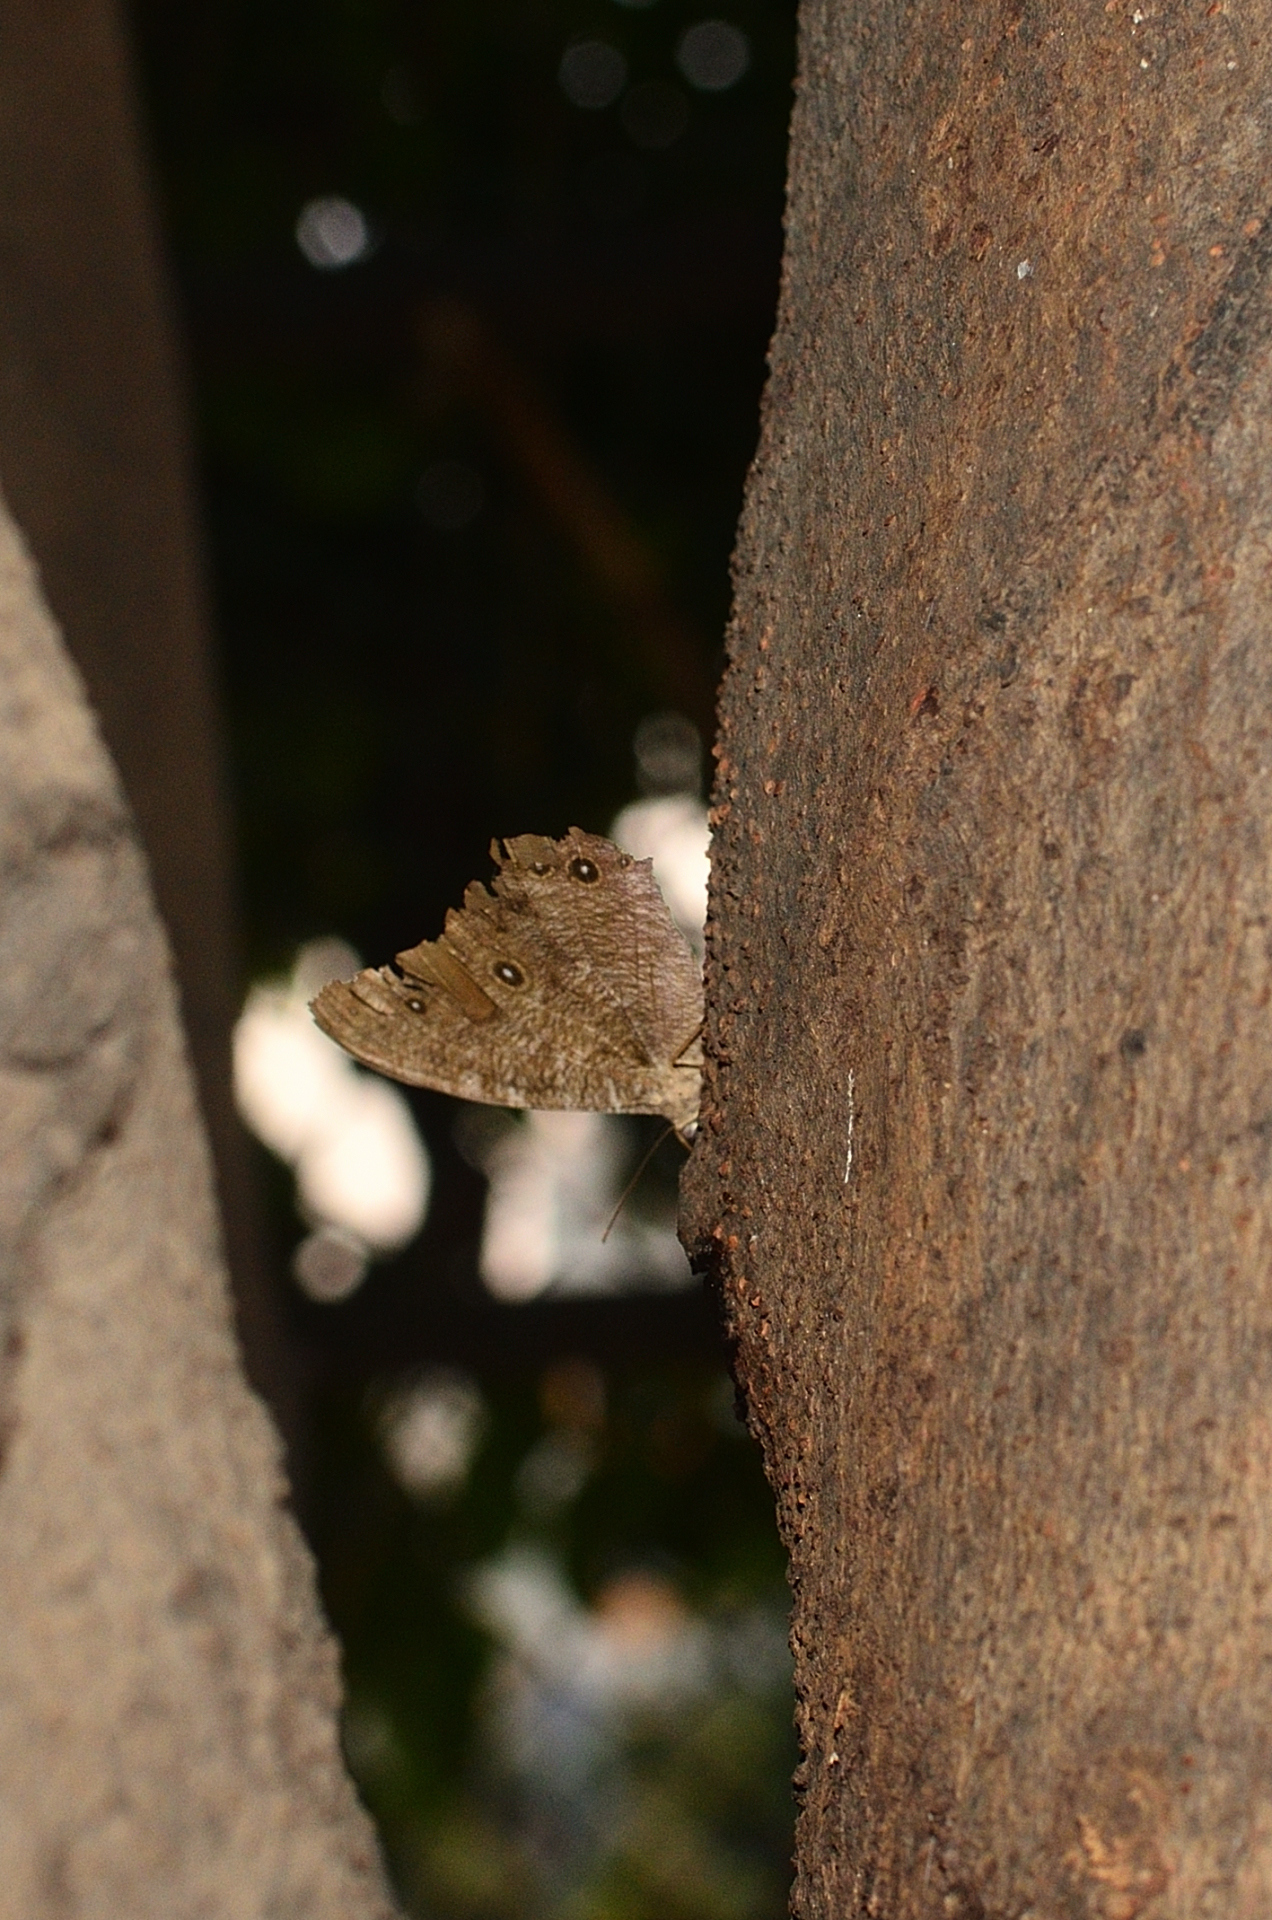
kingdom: Animalia
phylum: Arthropoda
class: Insecta
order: Lepidoptera
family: Nymphalidae
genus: Melanitis
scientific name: Melanitis leda
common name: Twilight brown
